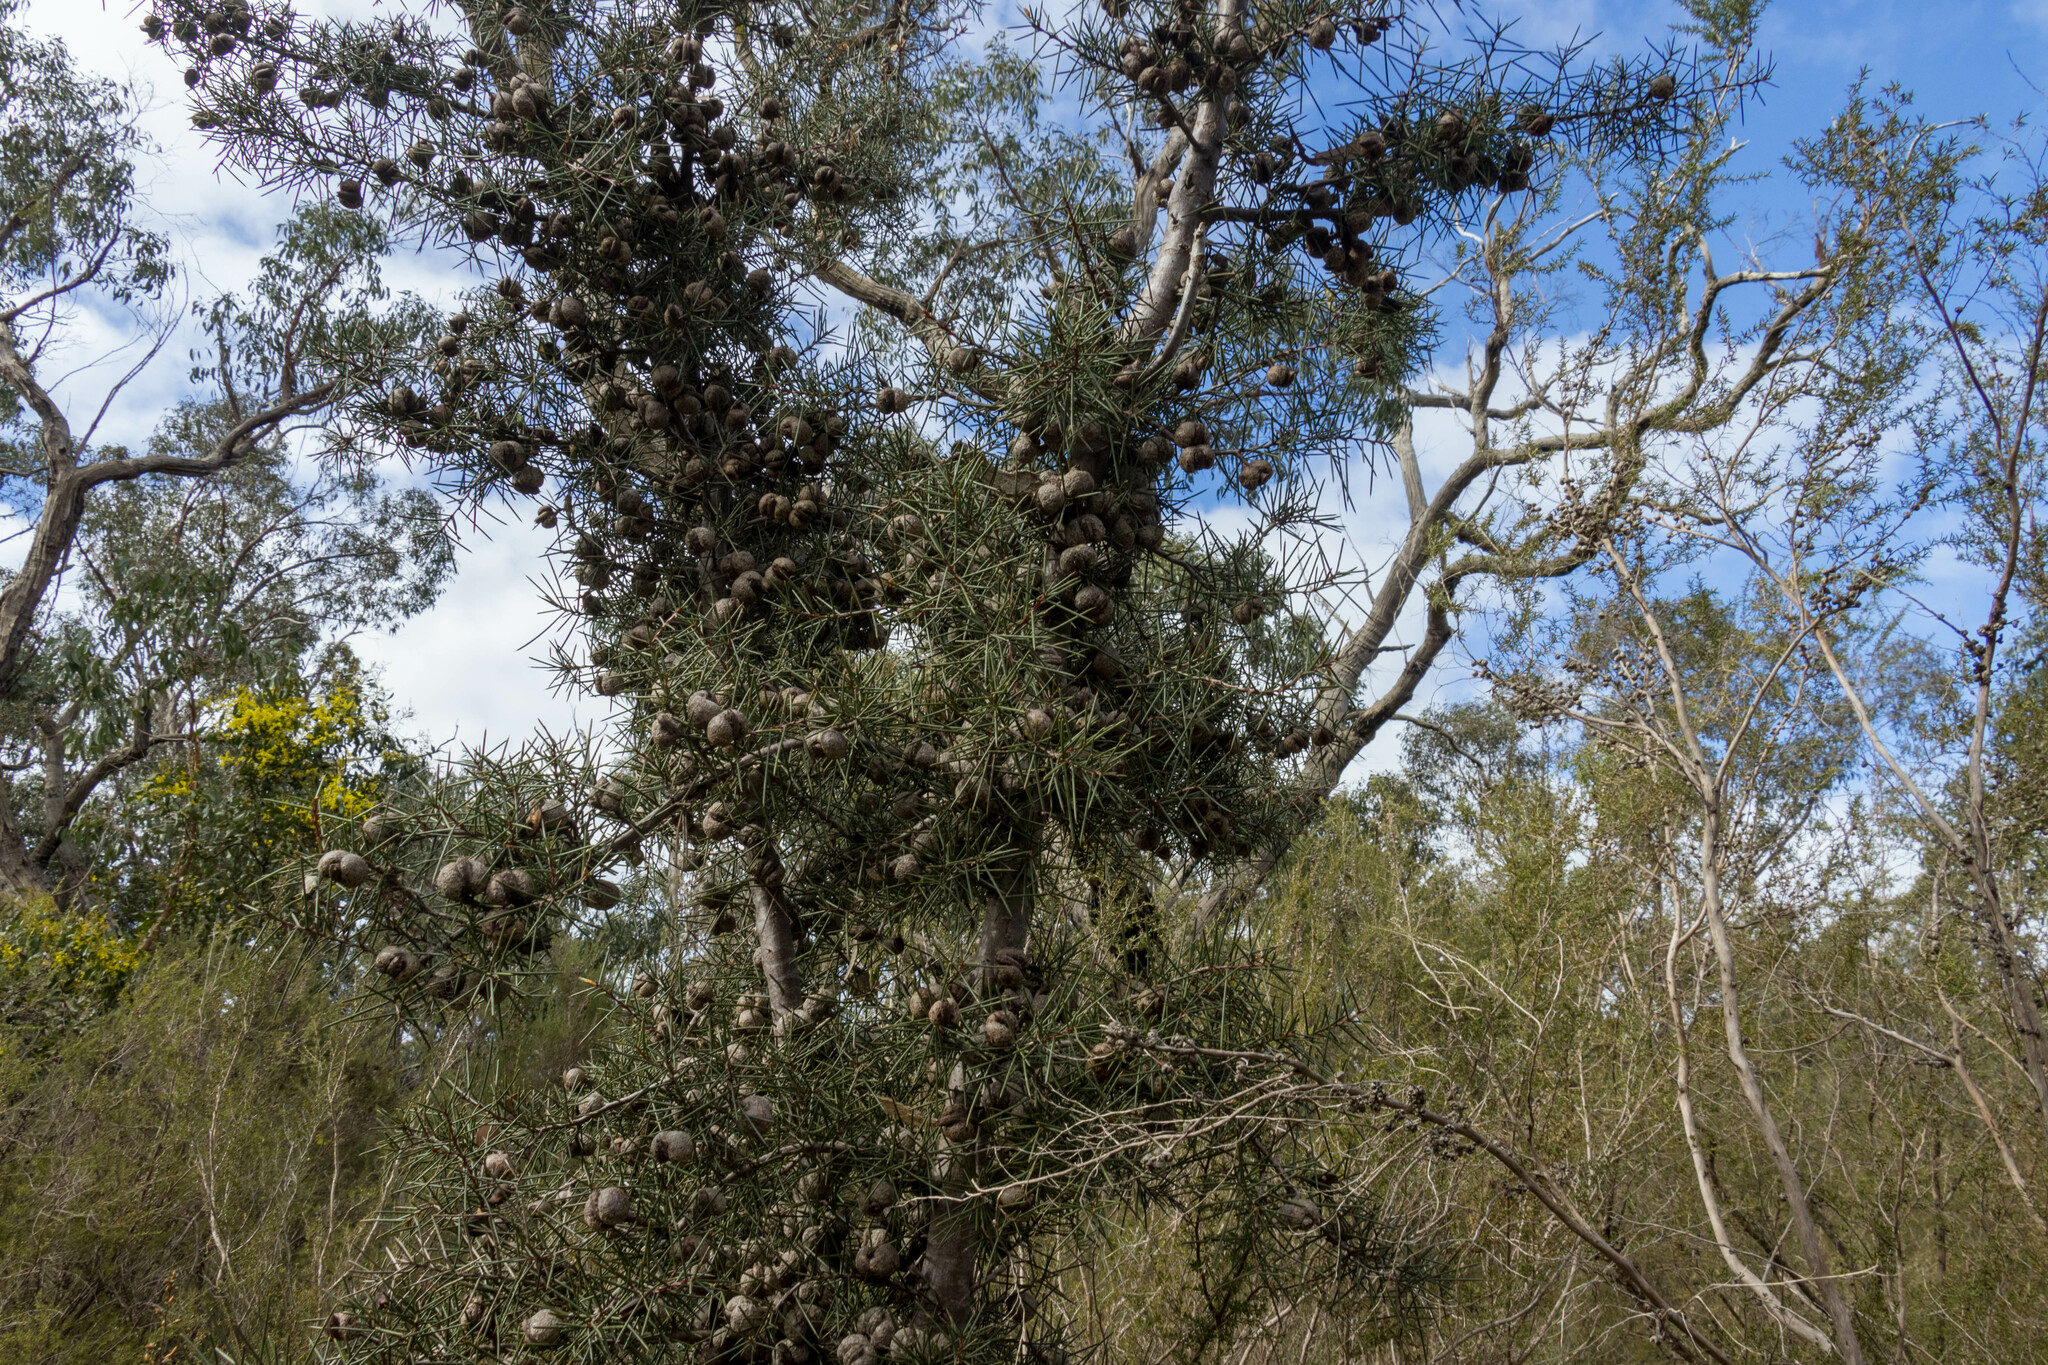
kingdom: Plantae
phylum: Tracheophyta
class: Magnoliopsida
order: Proteales
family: Proteaceae
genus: Hakea
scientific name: Hakea decurrens
